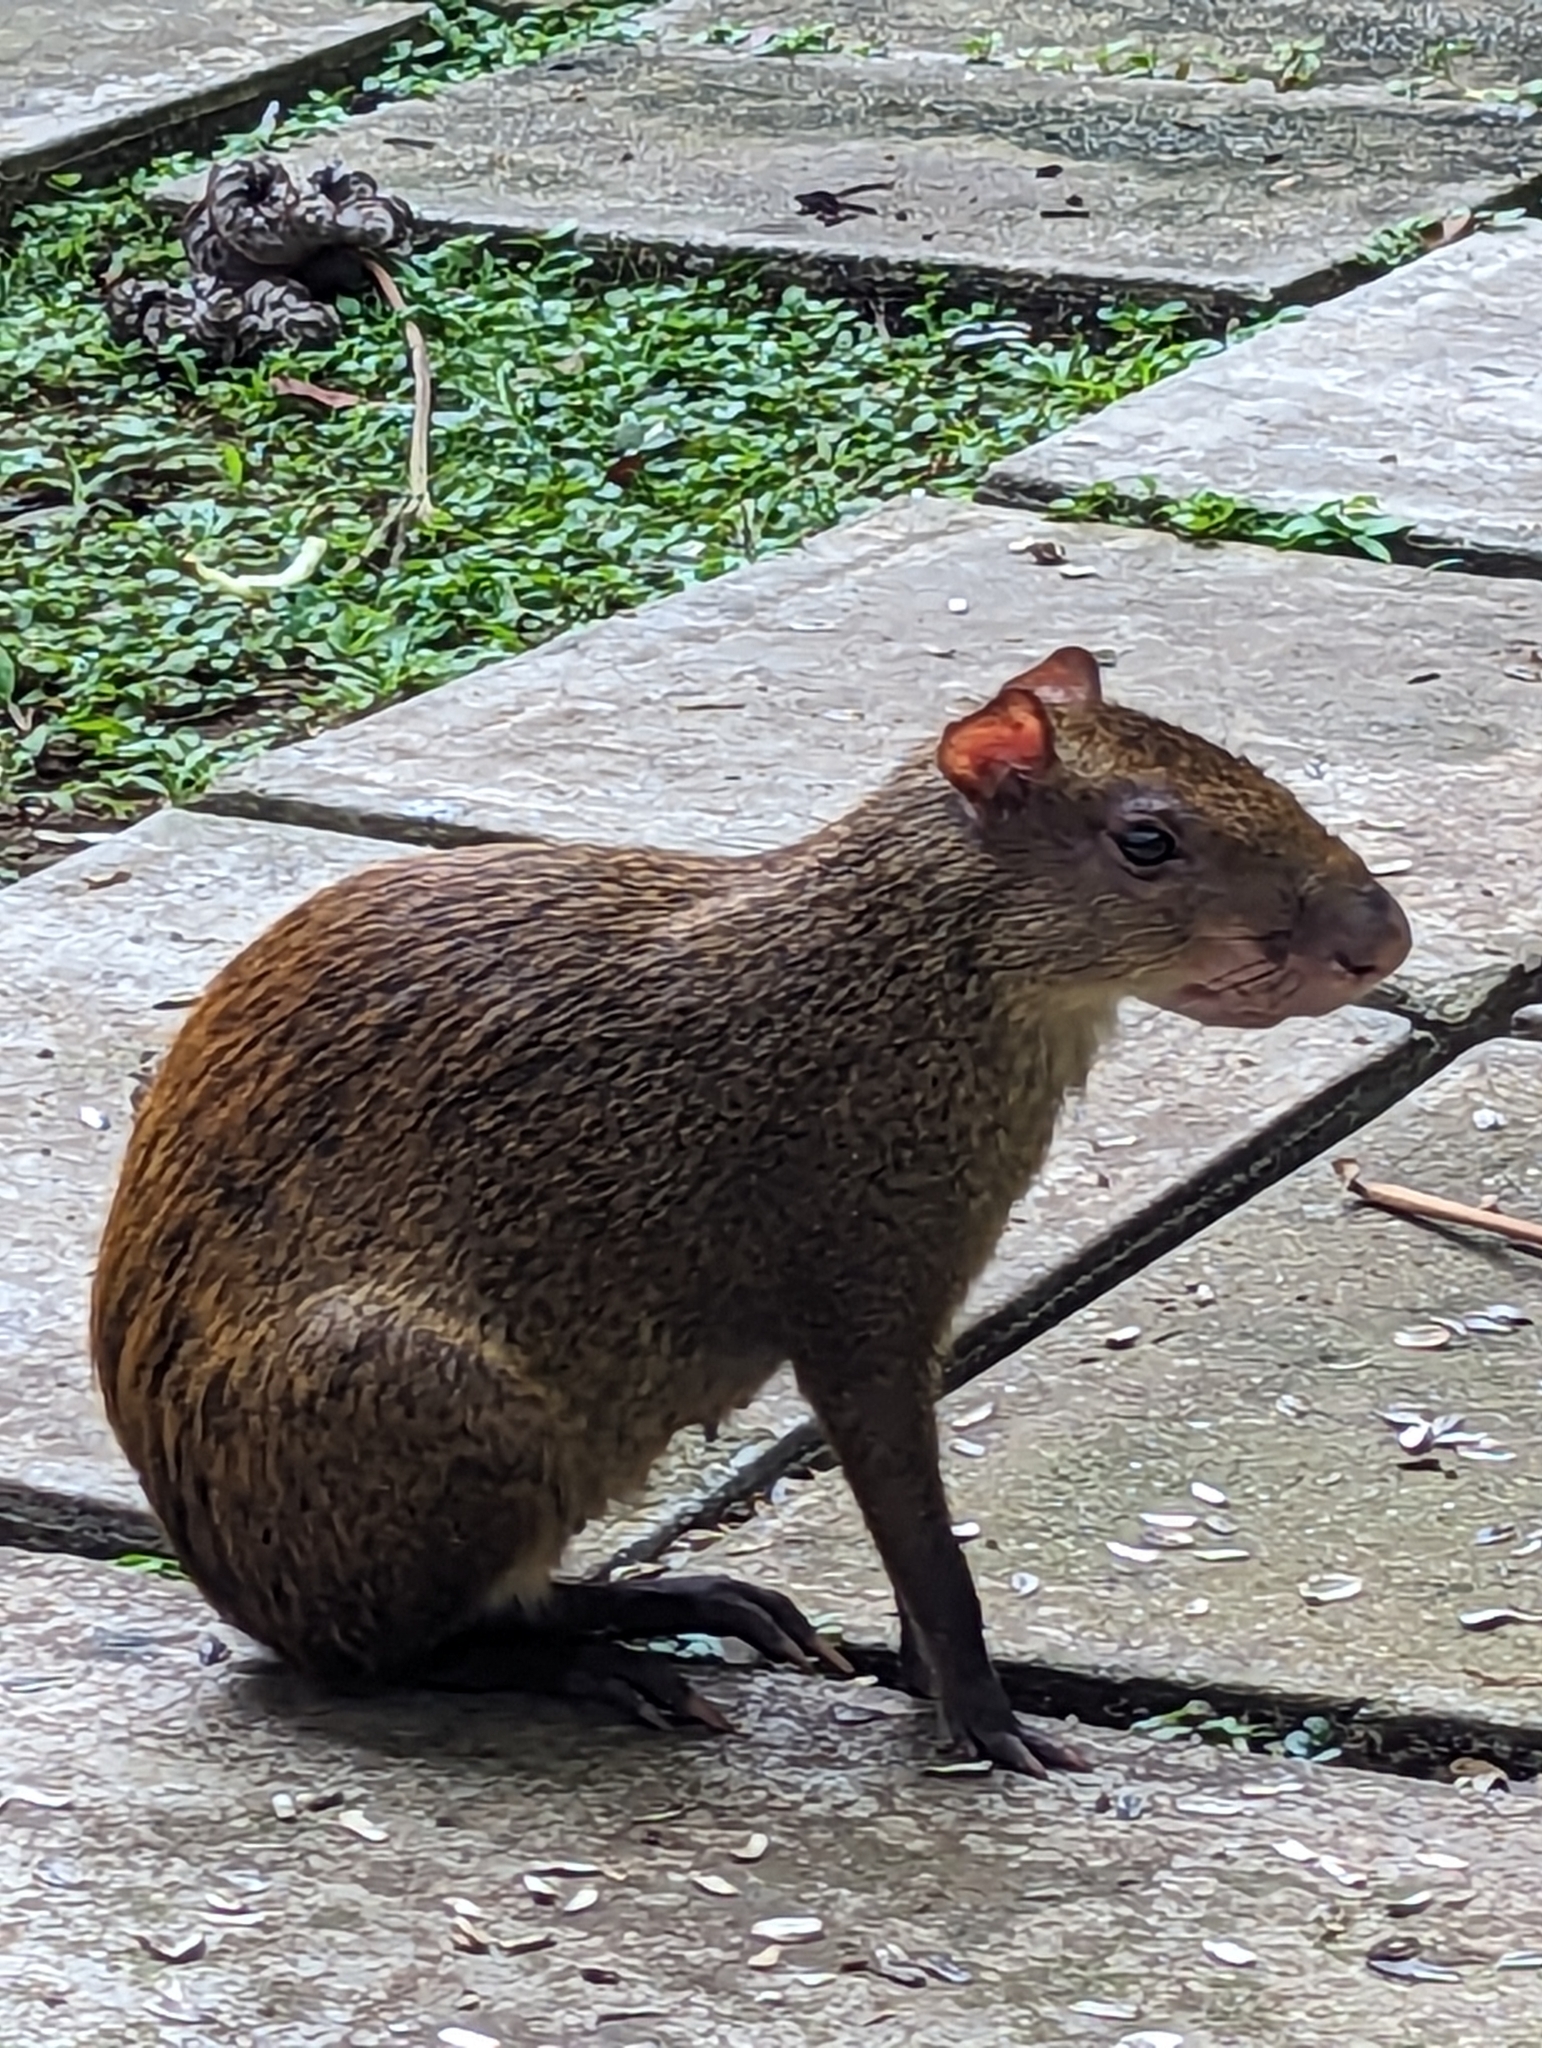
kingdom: Animalia
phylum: Chordata
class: Mammalia
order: Rodentia
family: Dasyproctidae
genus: Dasyprocta
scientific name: Dasyprocta punctata
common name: Central american agouti
